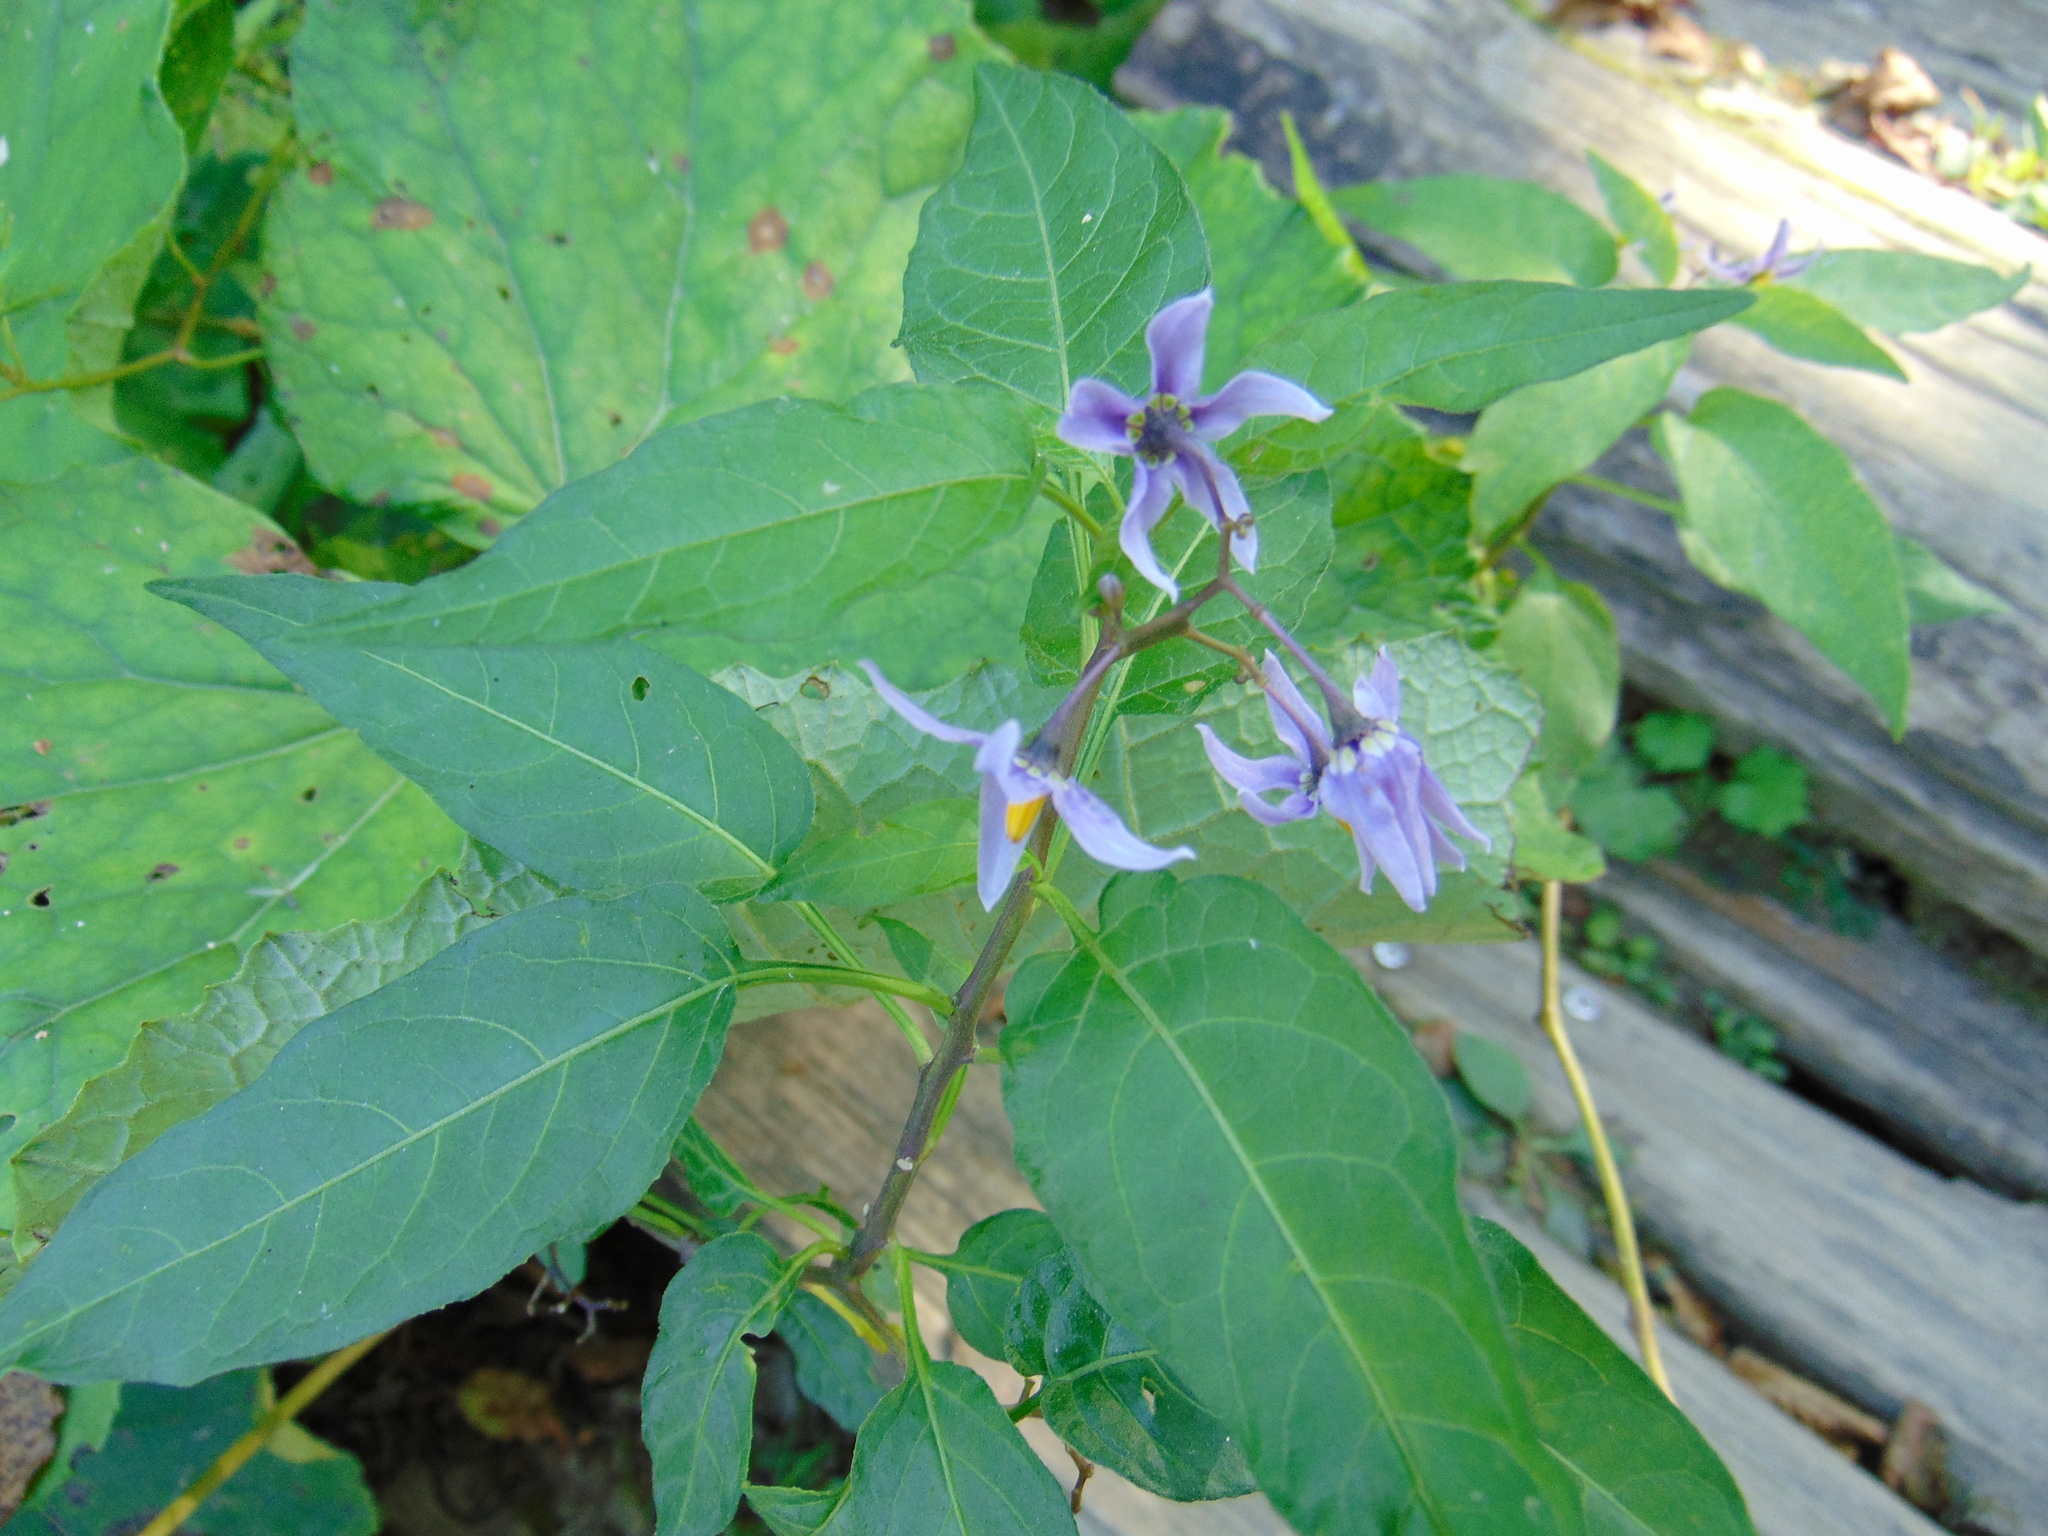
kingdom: Plantae
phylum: Tracheophyta
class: Magnoliopsida
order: Solanales
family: Solanaceae
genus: Solanum
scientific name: Solanum dulcamara
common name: Climbing nightshade
